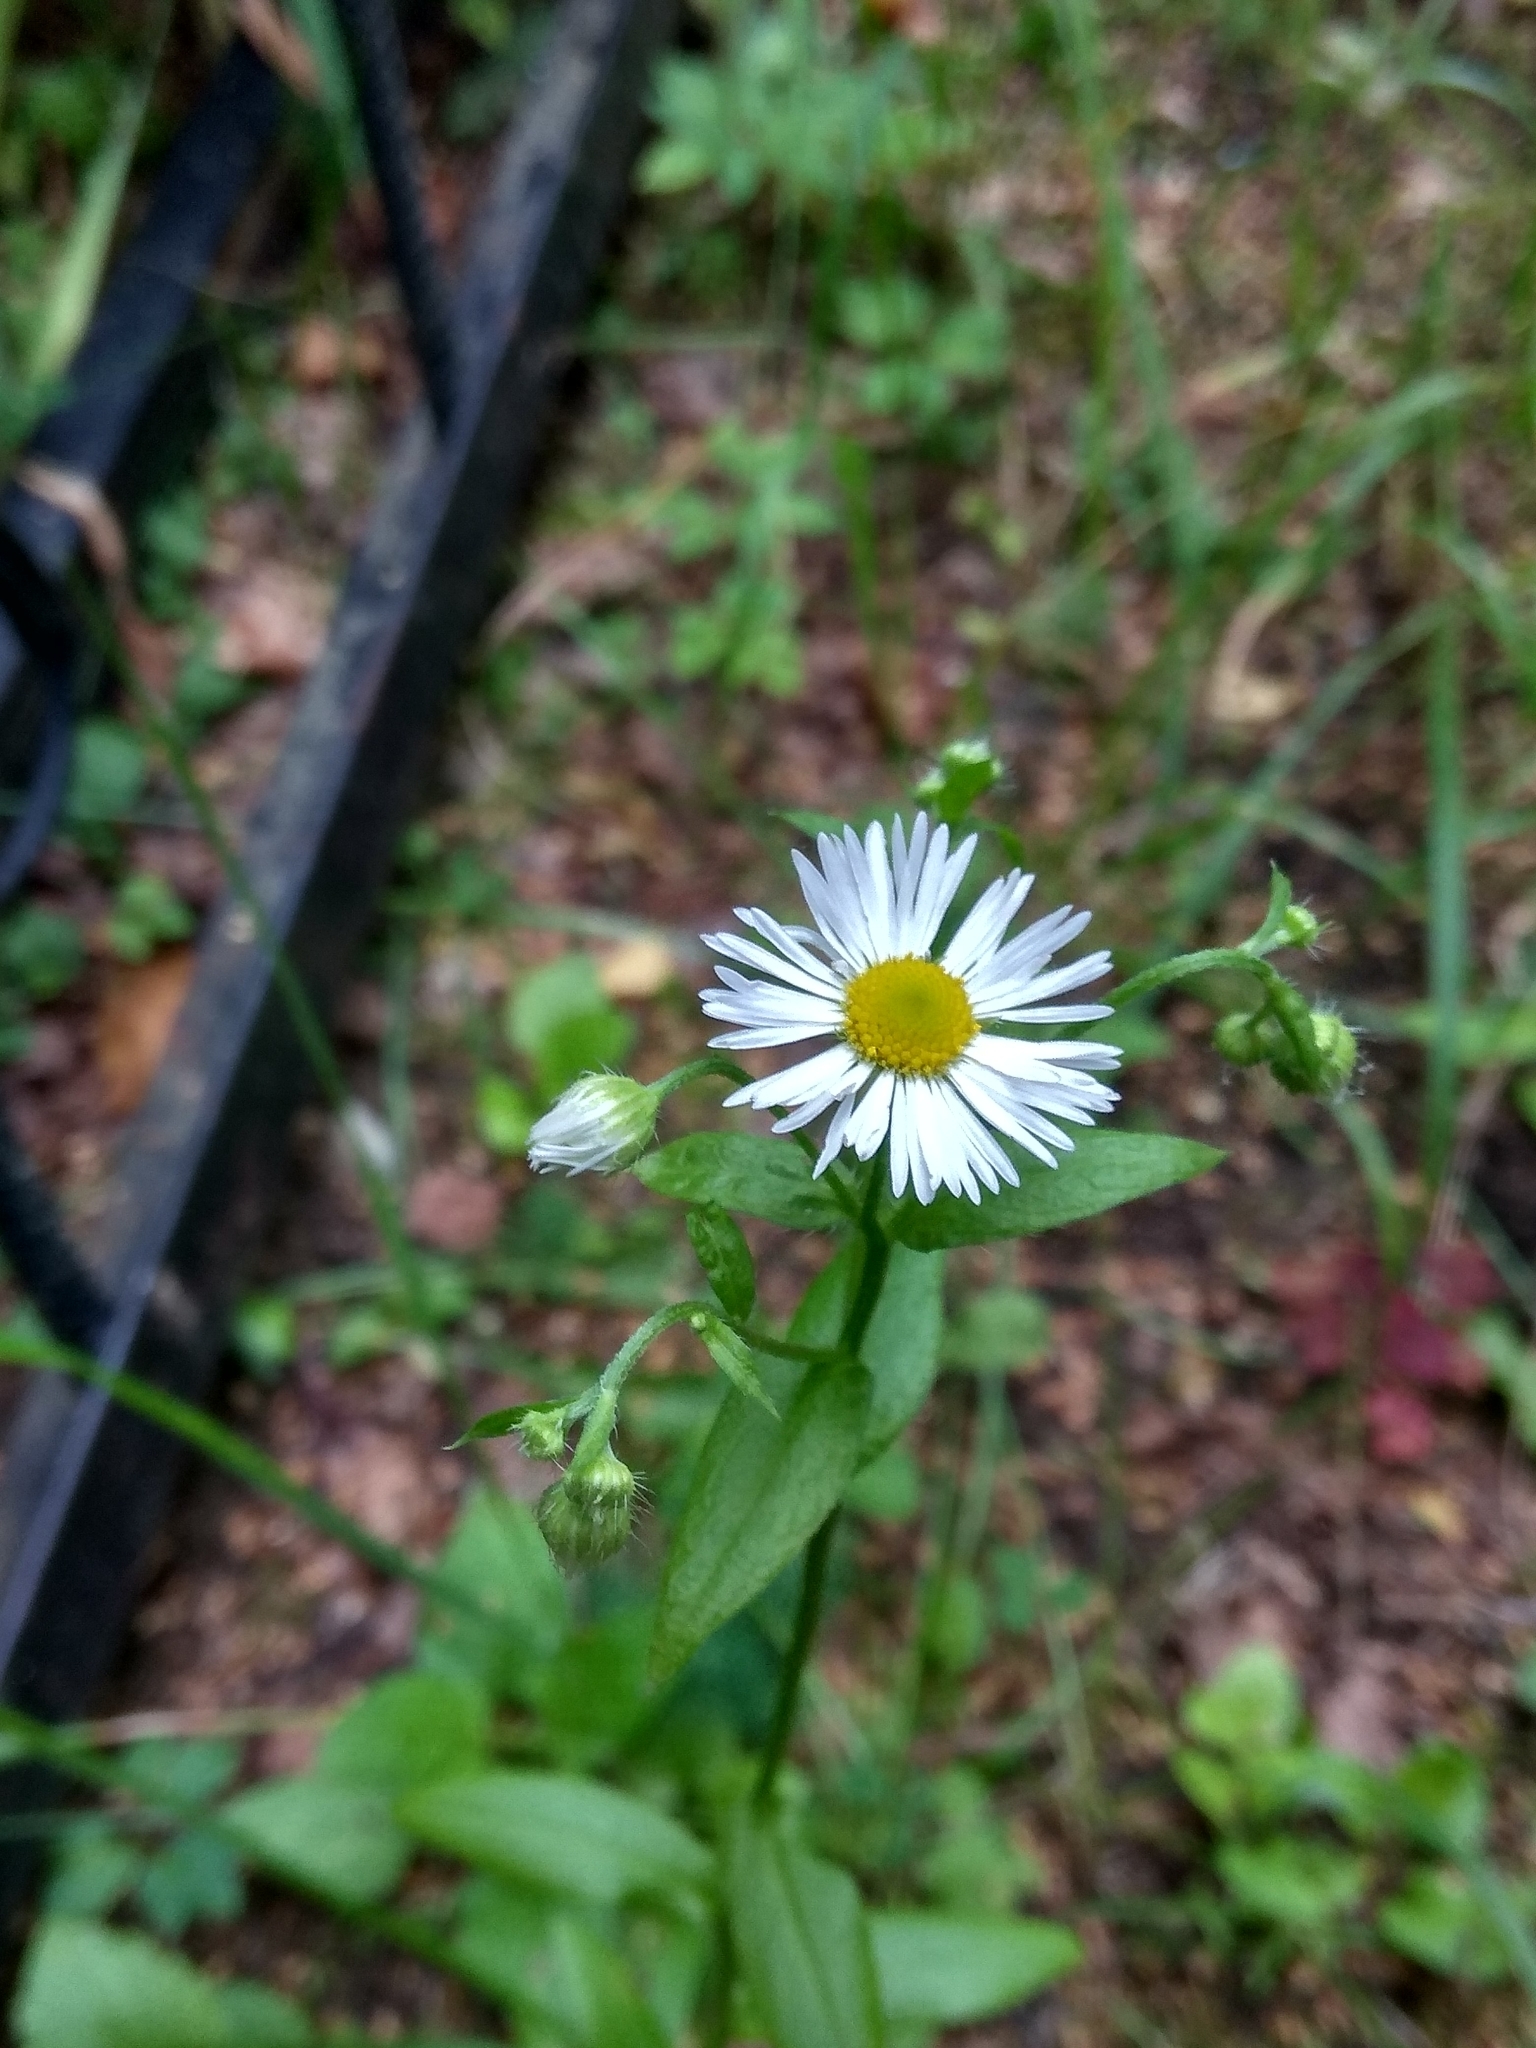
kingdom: Plantae
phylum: Tracheophyta
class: Magnoliopsida
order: Asterales
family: Asteraceae
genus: Erigeron
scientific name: Erigeron annuus
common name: Tall fleabane
